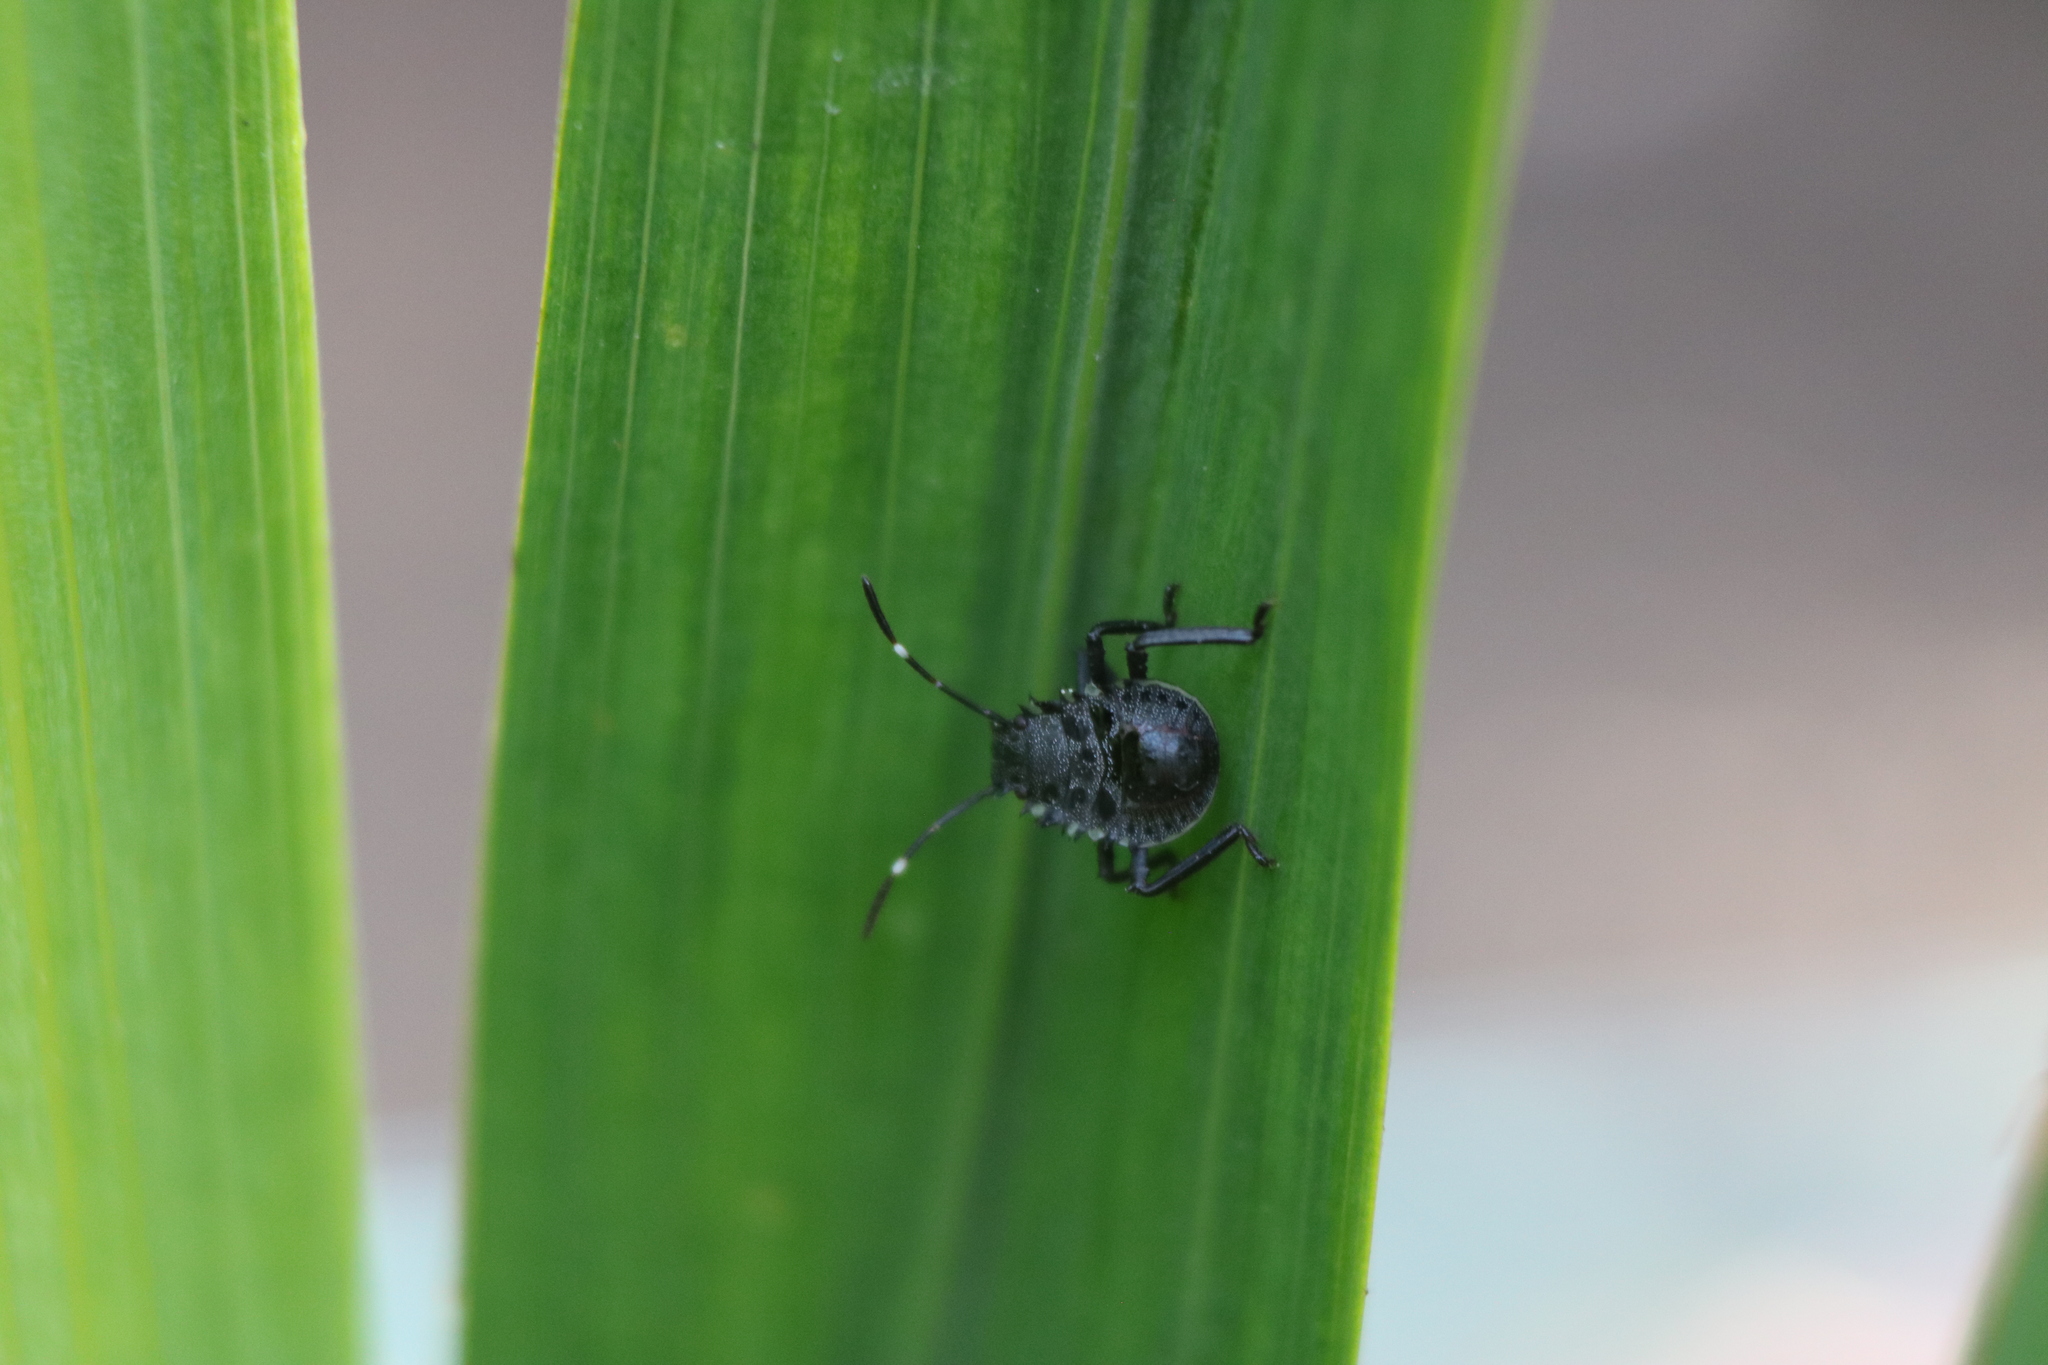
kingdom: Animalia
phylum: Arthropoda
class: Insecta
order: Hemiptera
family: Pentatomidae
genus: Halyomorpha
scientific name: Halyomorpha halys
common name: Brown marmorated stink bug
